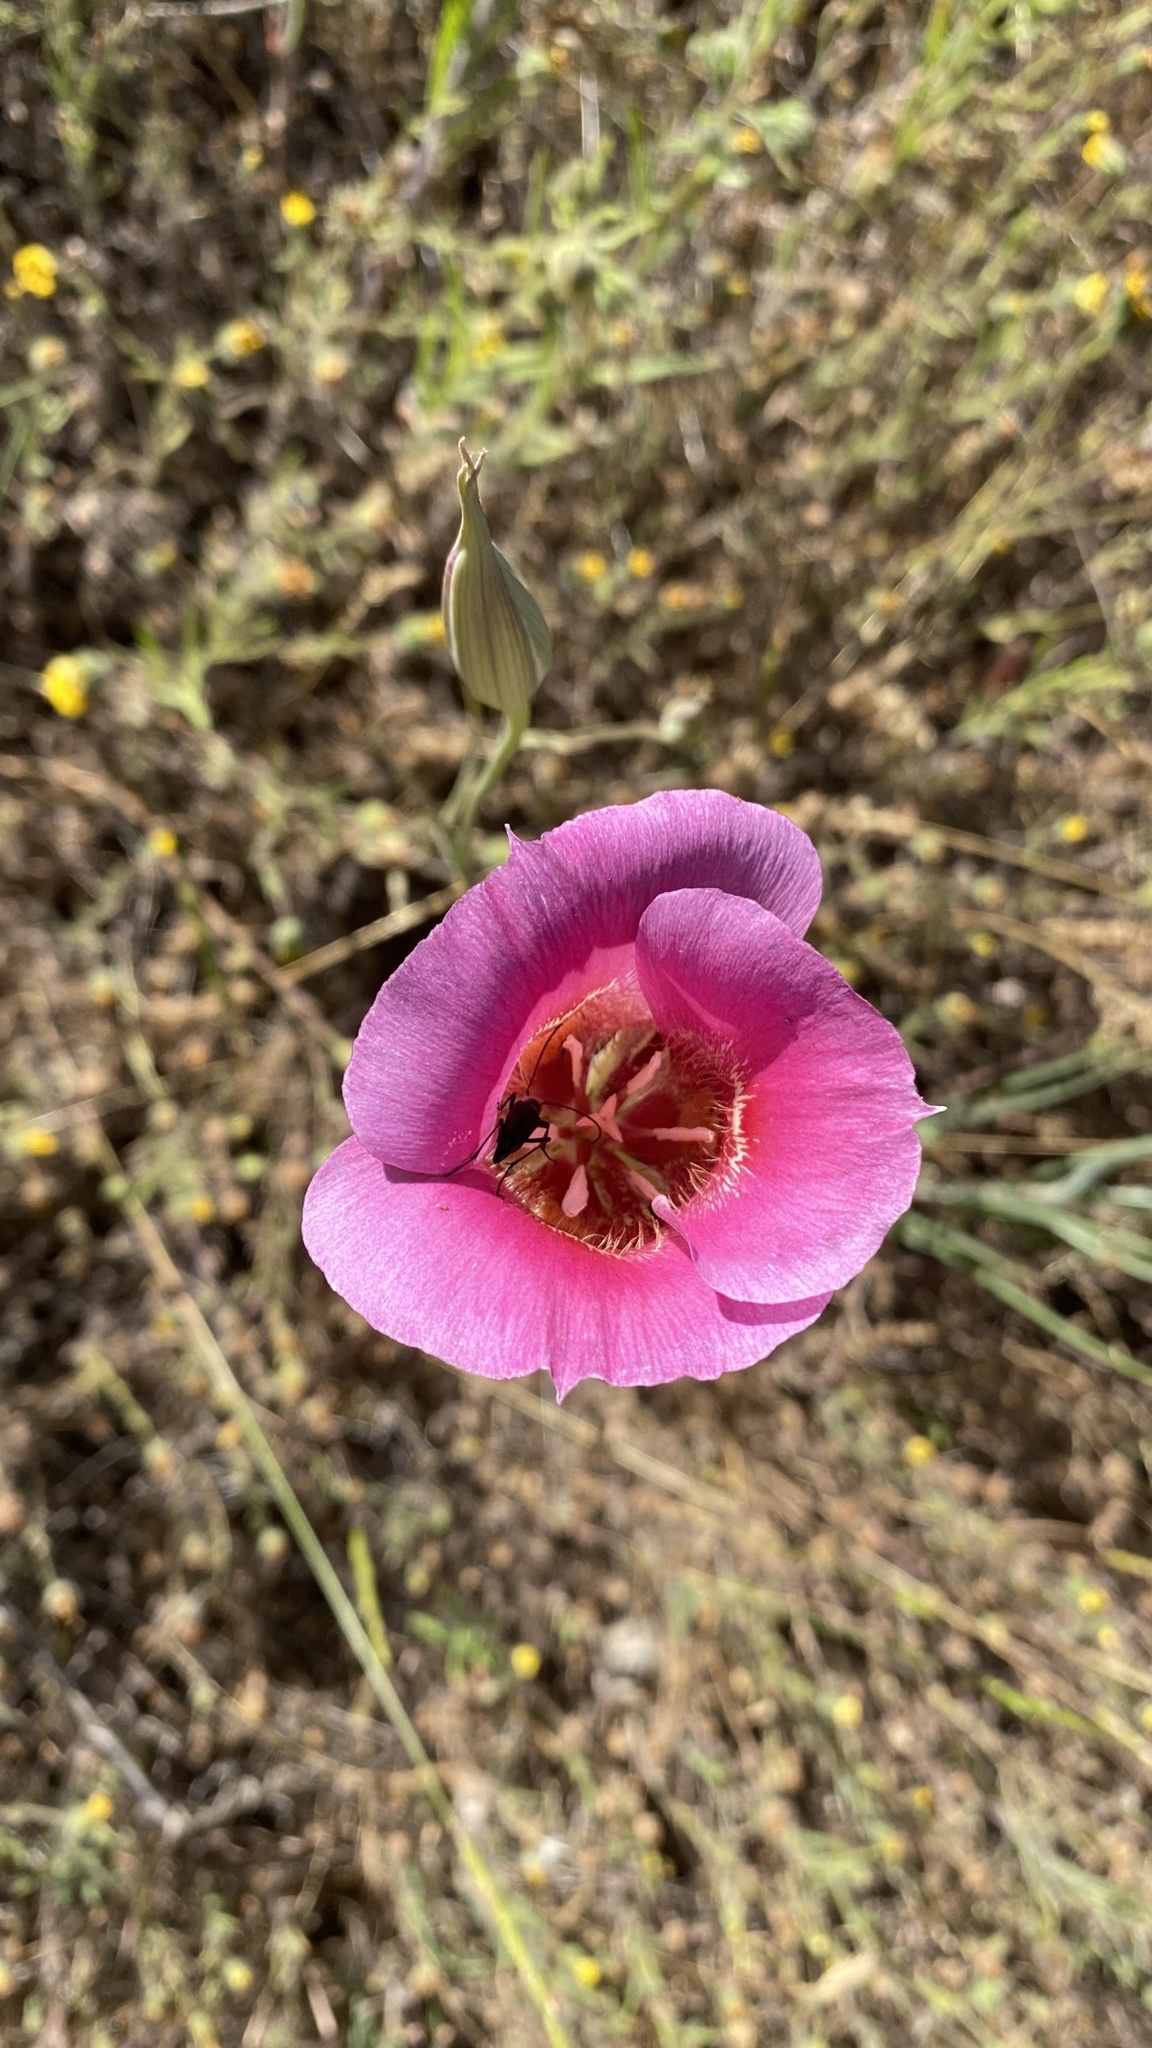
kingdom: Plantae
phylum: Tracheophyta
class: Liliopsida
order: Liliales
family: Liliaceae
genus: Calochortus
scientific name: Calochortus venustus
